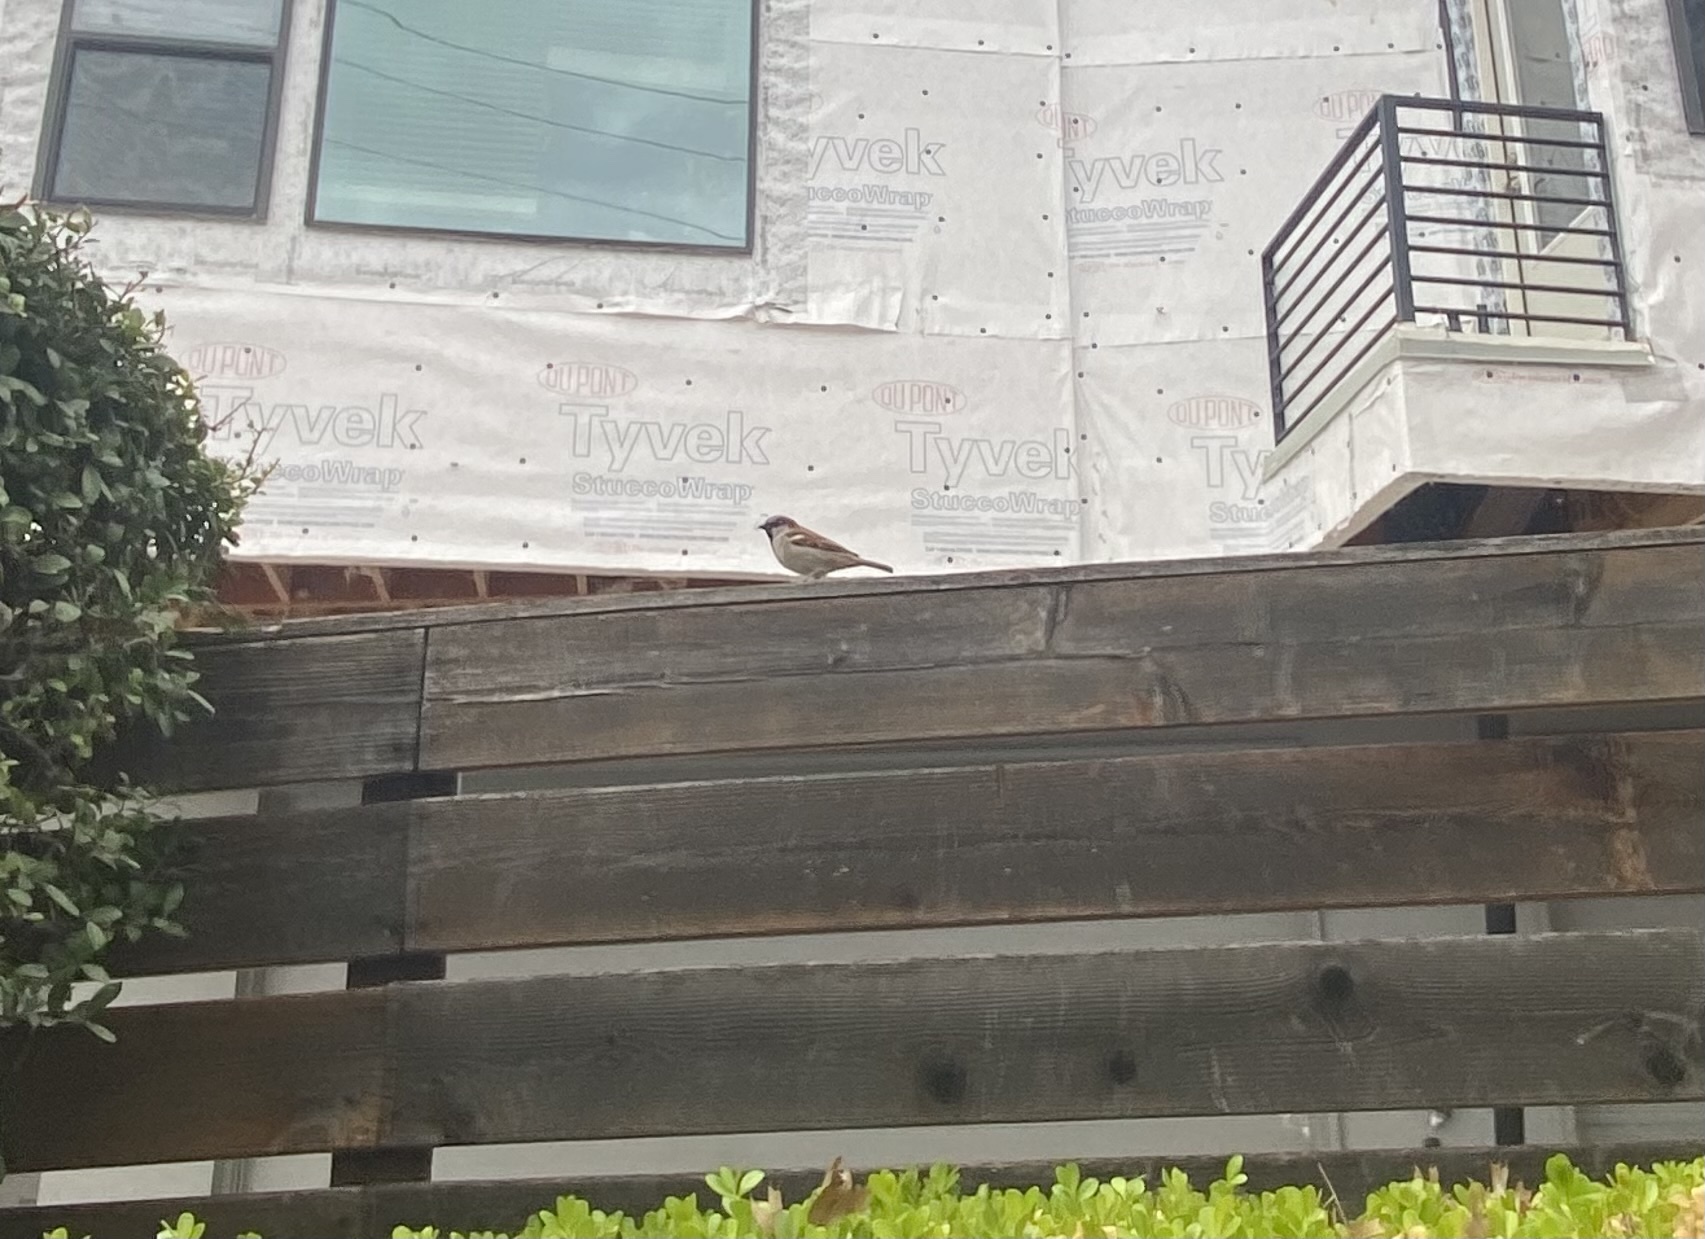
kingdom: Animalia
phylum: Chordata
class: Aves
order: Passeriformes
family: Passeridae
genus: Passer
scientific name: Passer domesticus
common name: House sparrow
